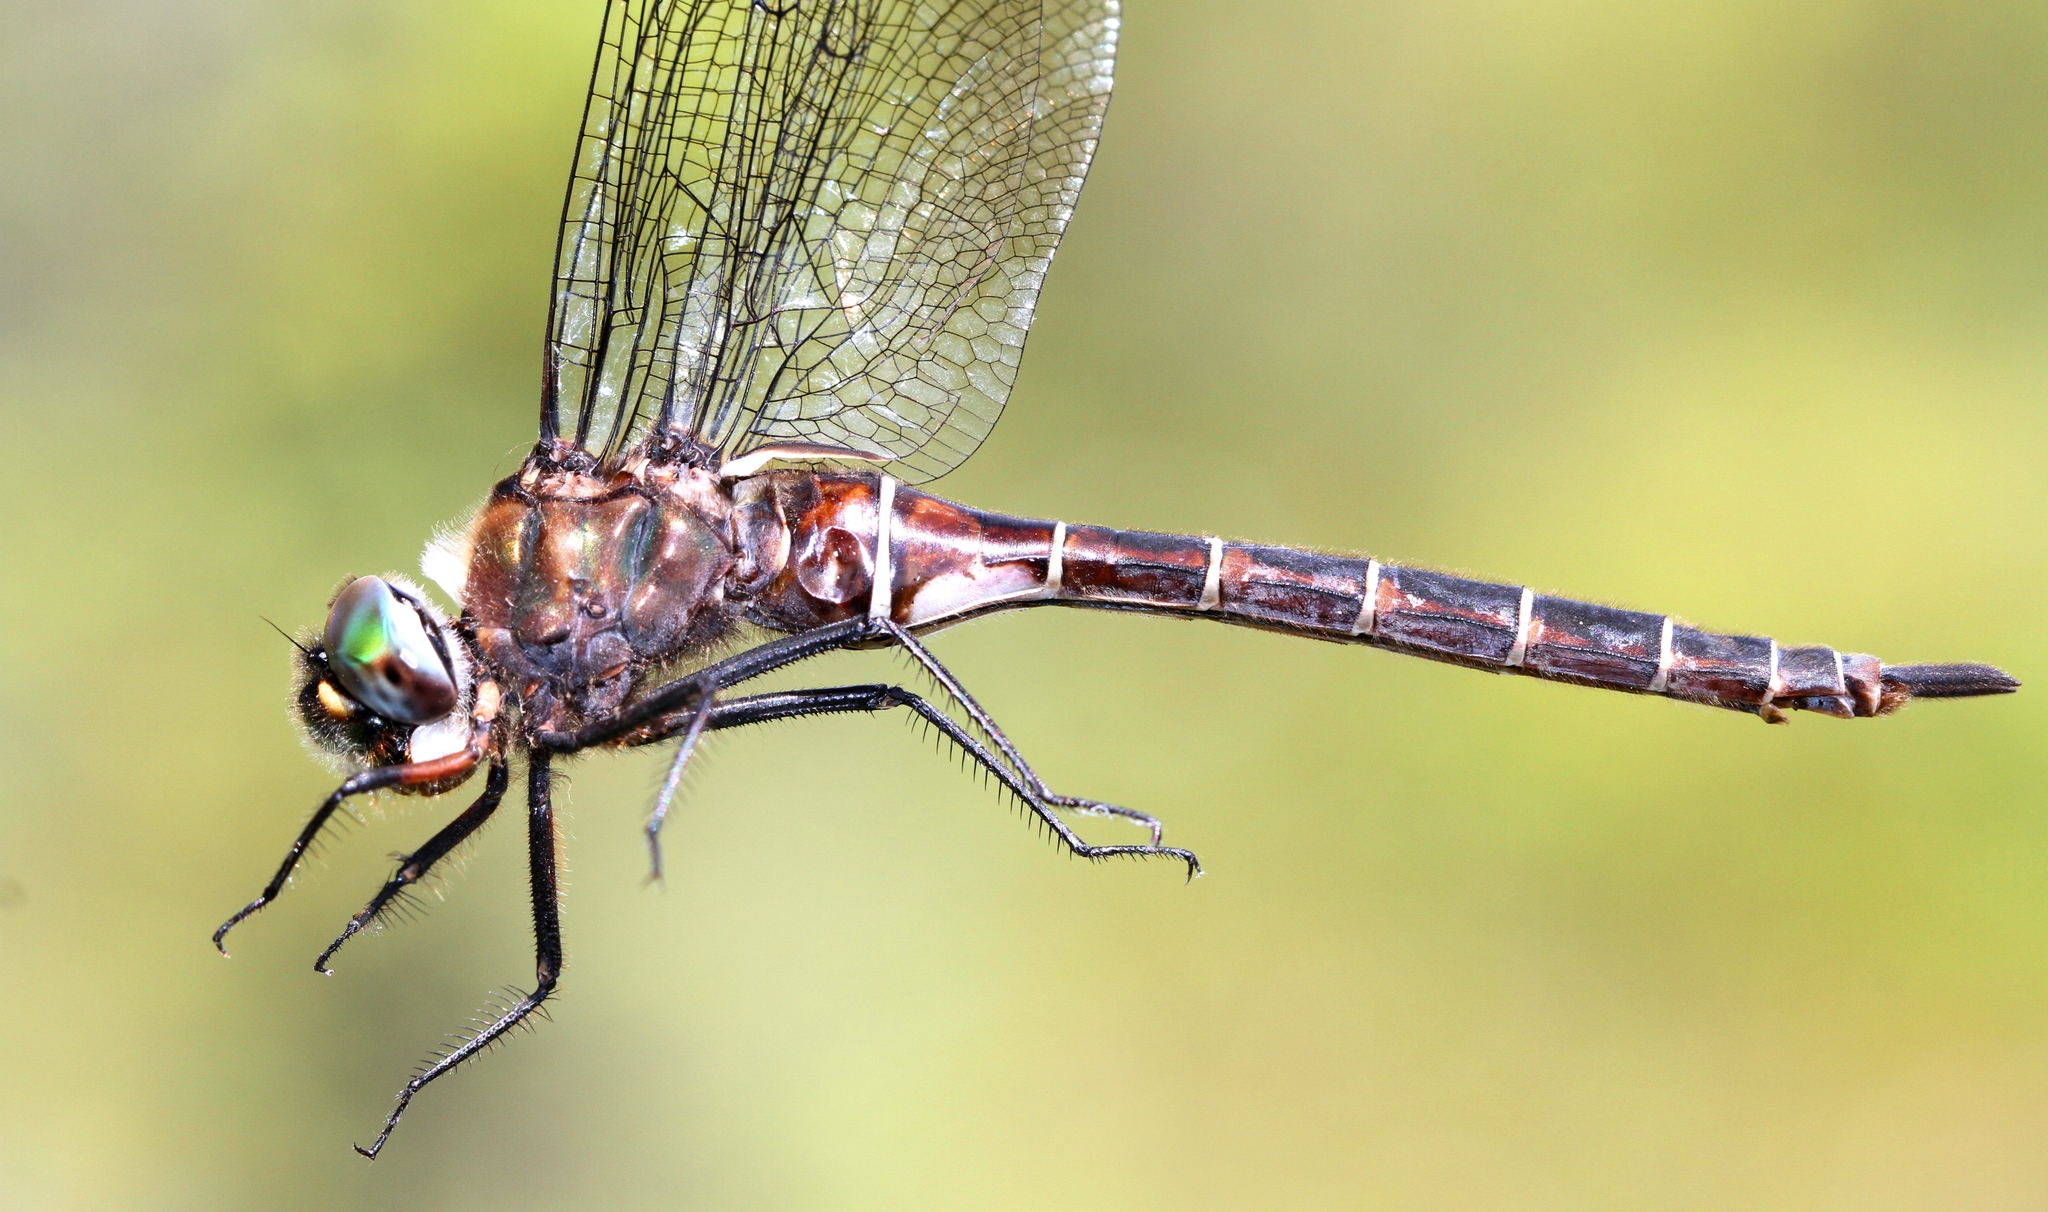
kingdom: Animalia
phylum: Arthropoda
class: Insecta
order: Odonata
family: Corduliidae
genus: Somatochlora
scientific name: Somatochlora cingulata
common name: Lake emerald
